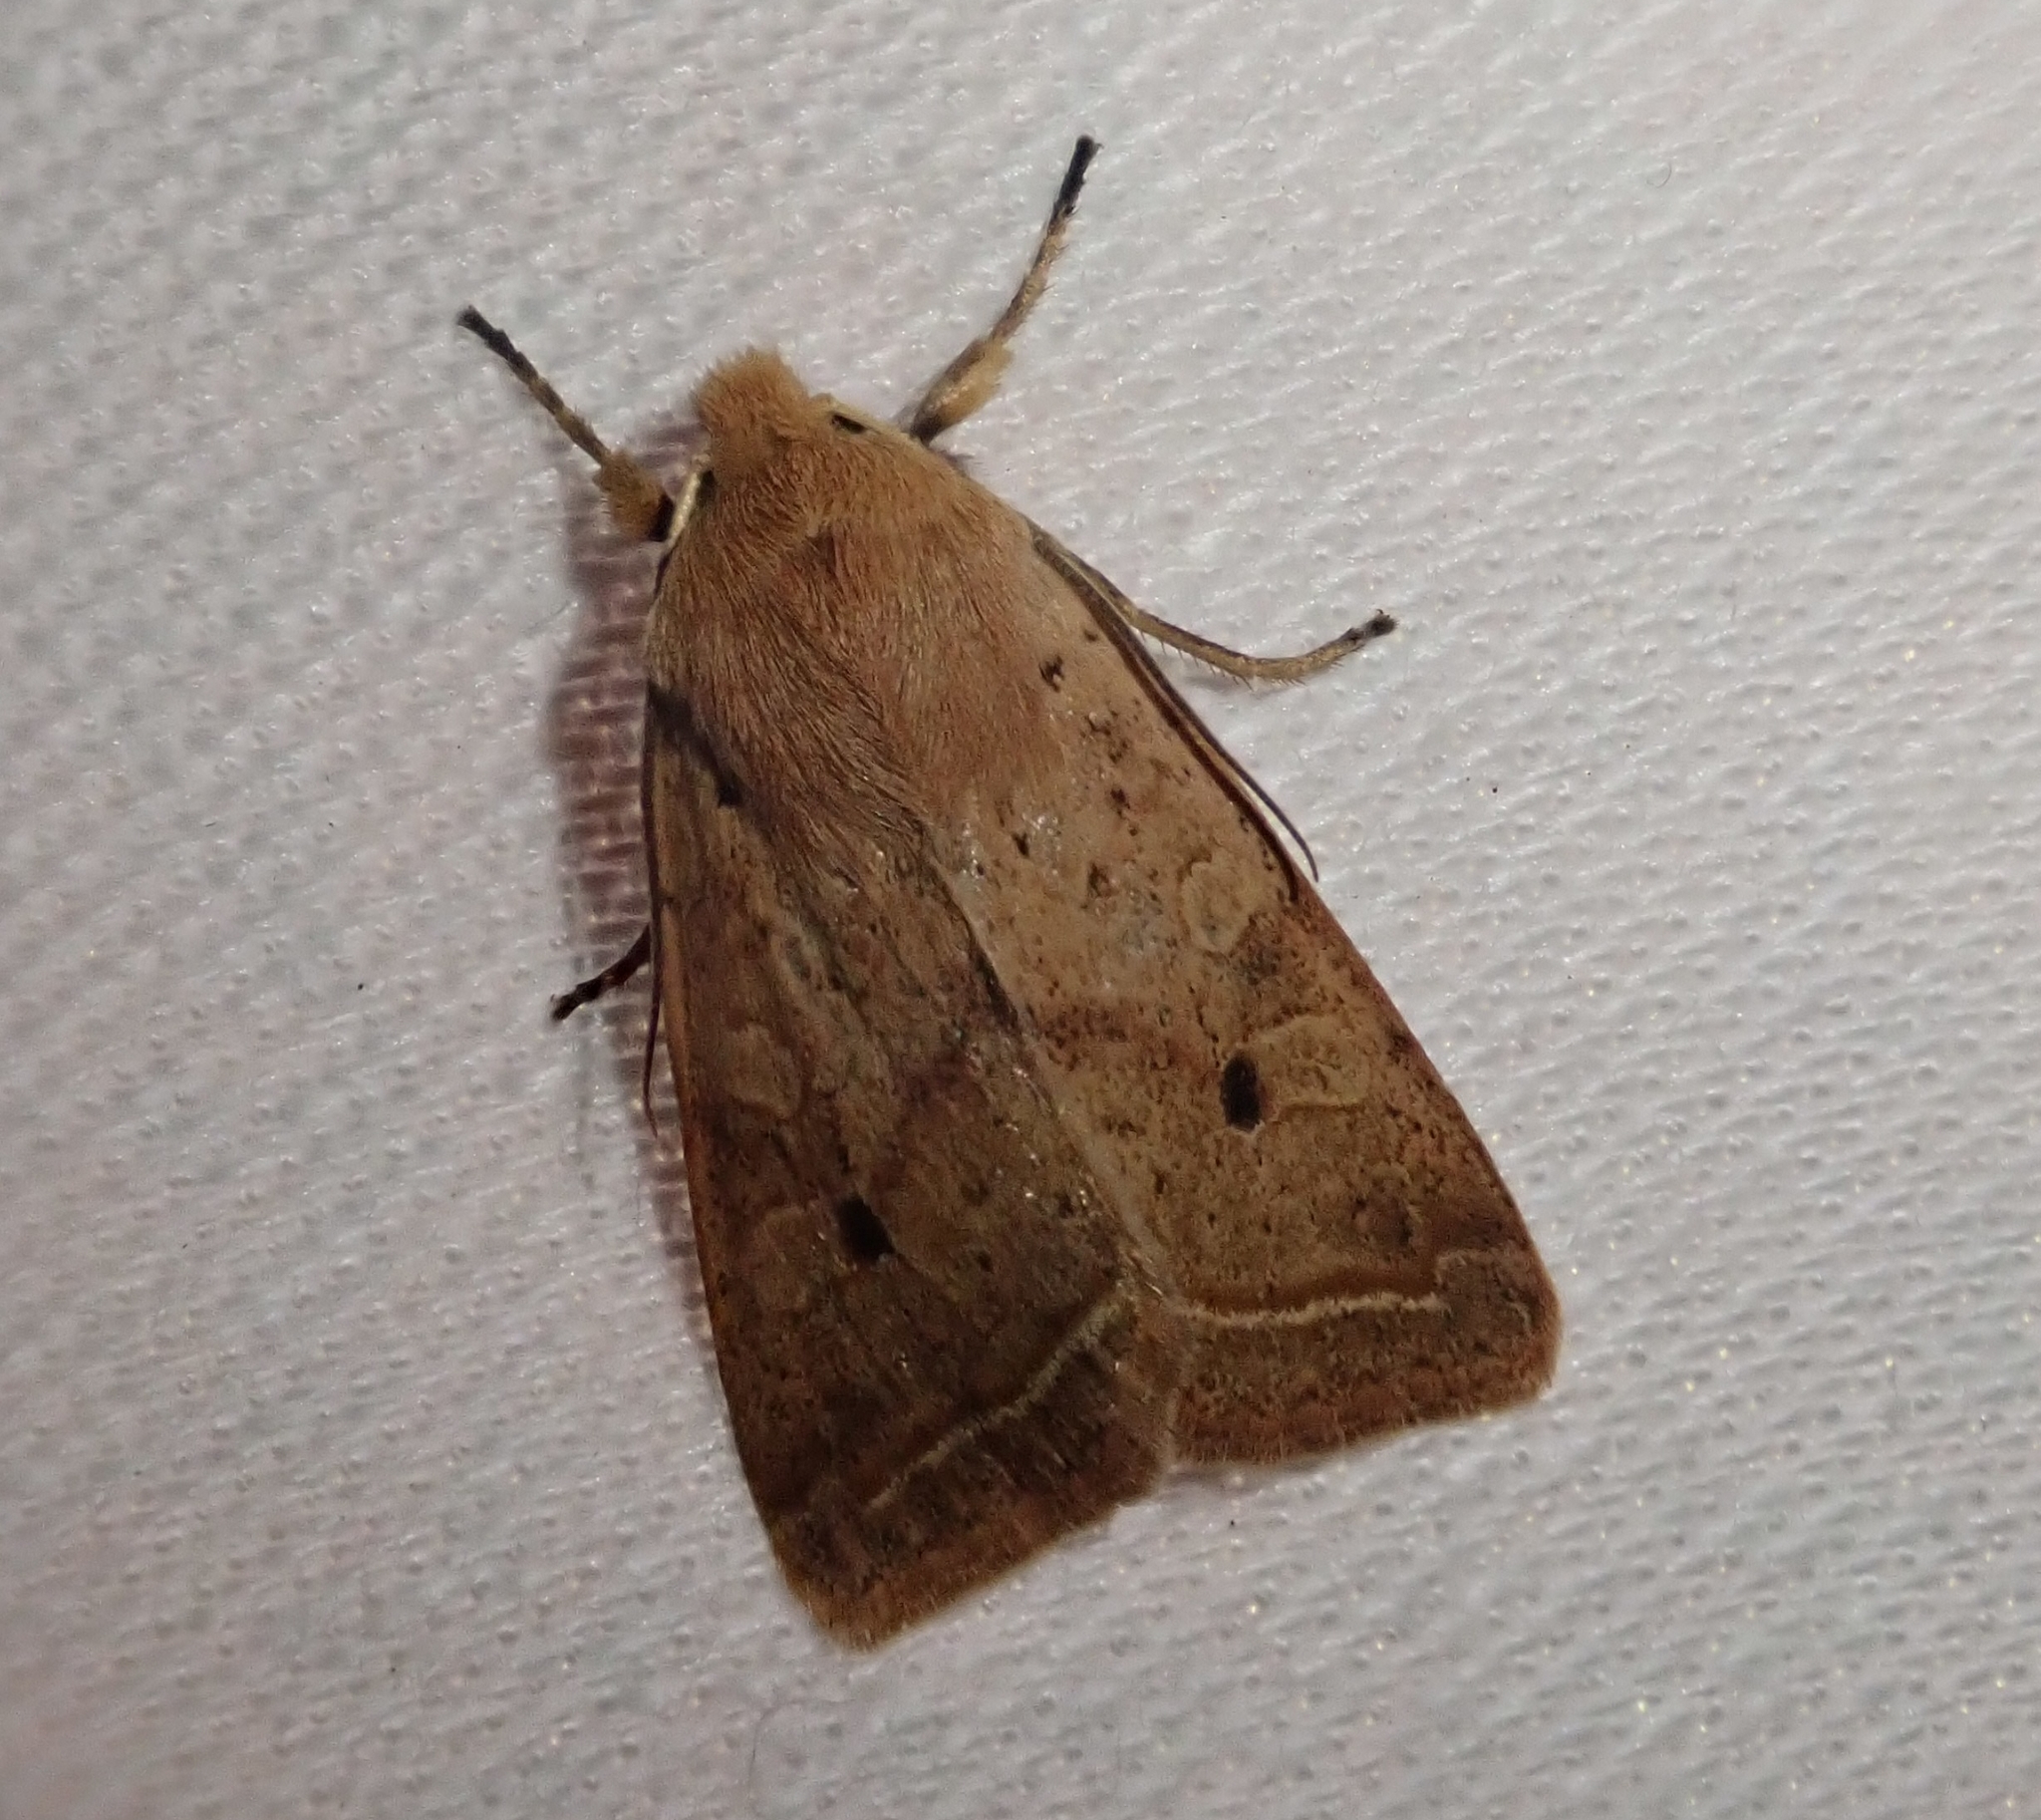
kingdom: Animalia
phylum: Arthropoda
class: Insecta
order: Lepidoptera
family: Noctuidae
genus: Agrochola
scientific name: Agrochola macilenta
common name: Yellow-line quaker
